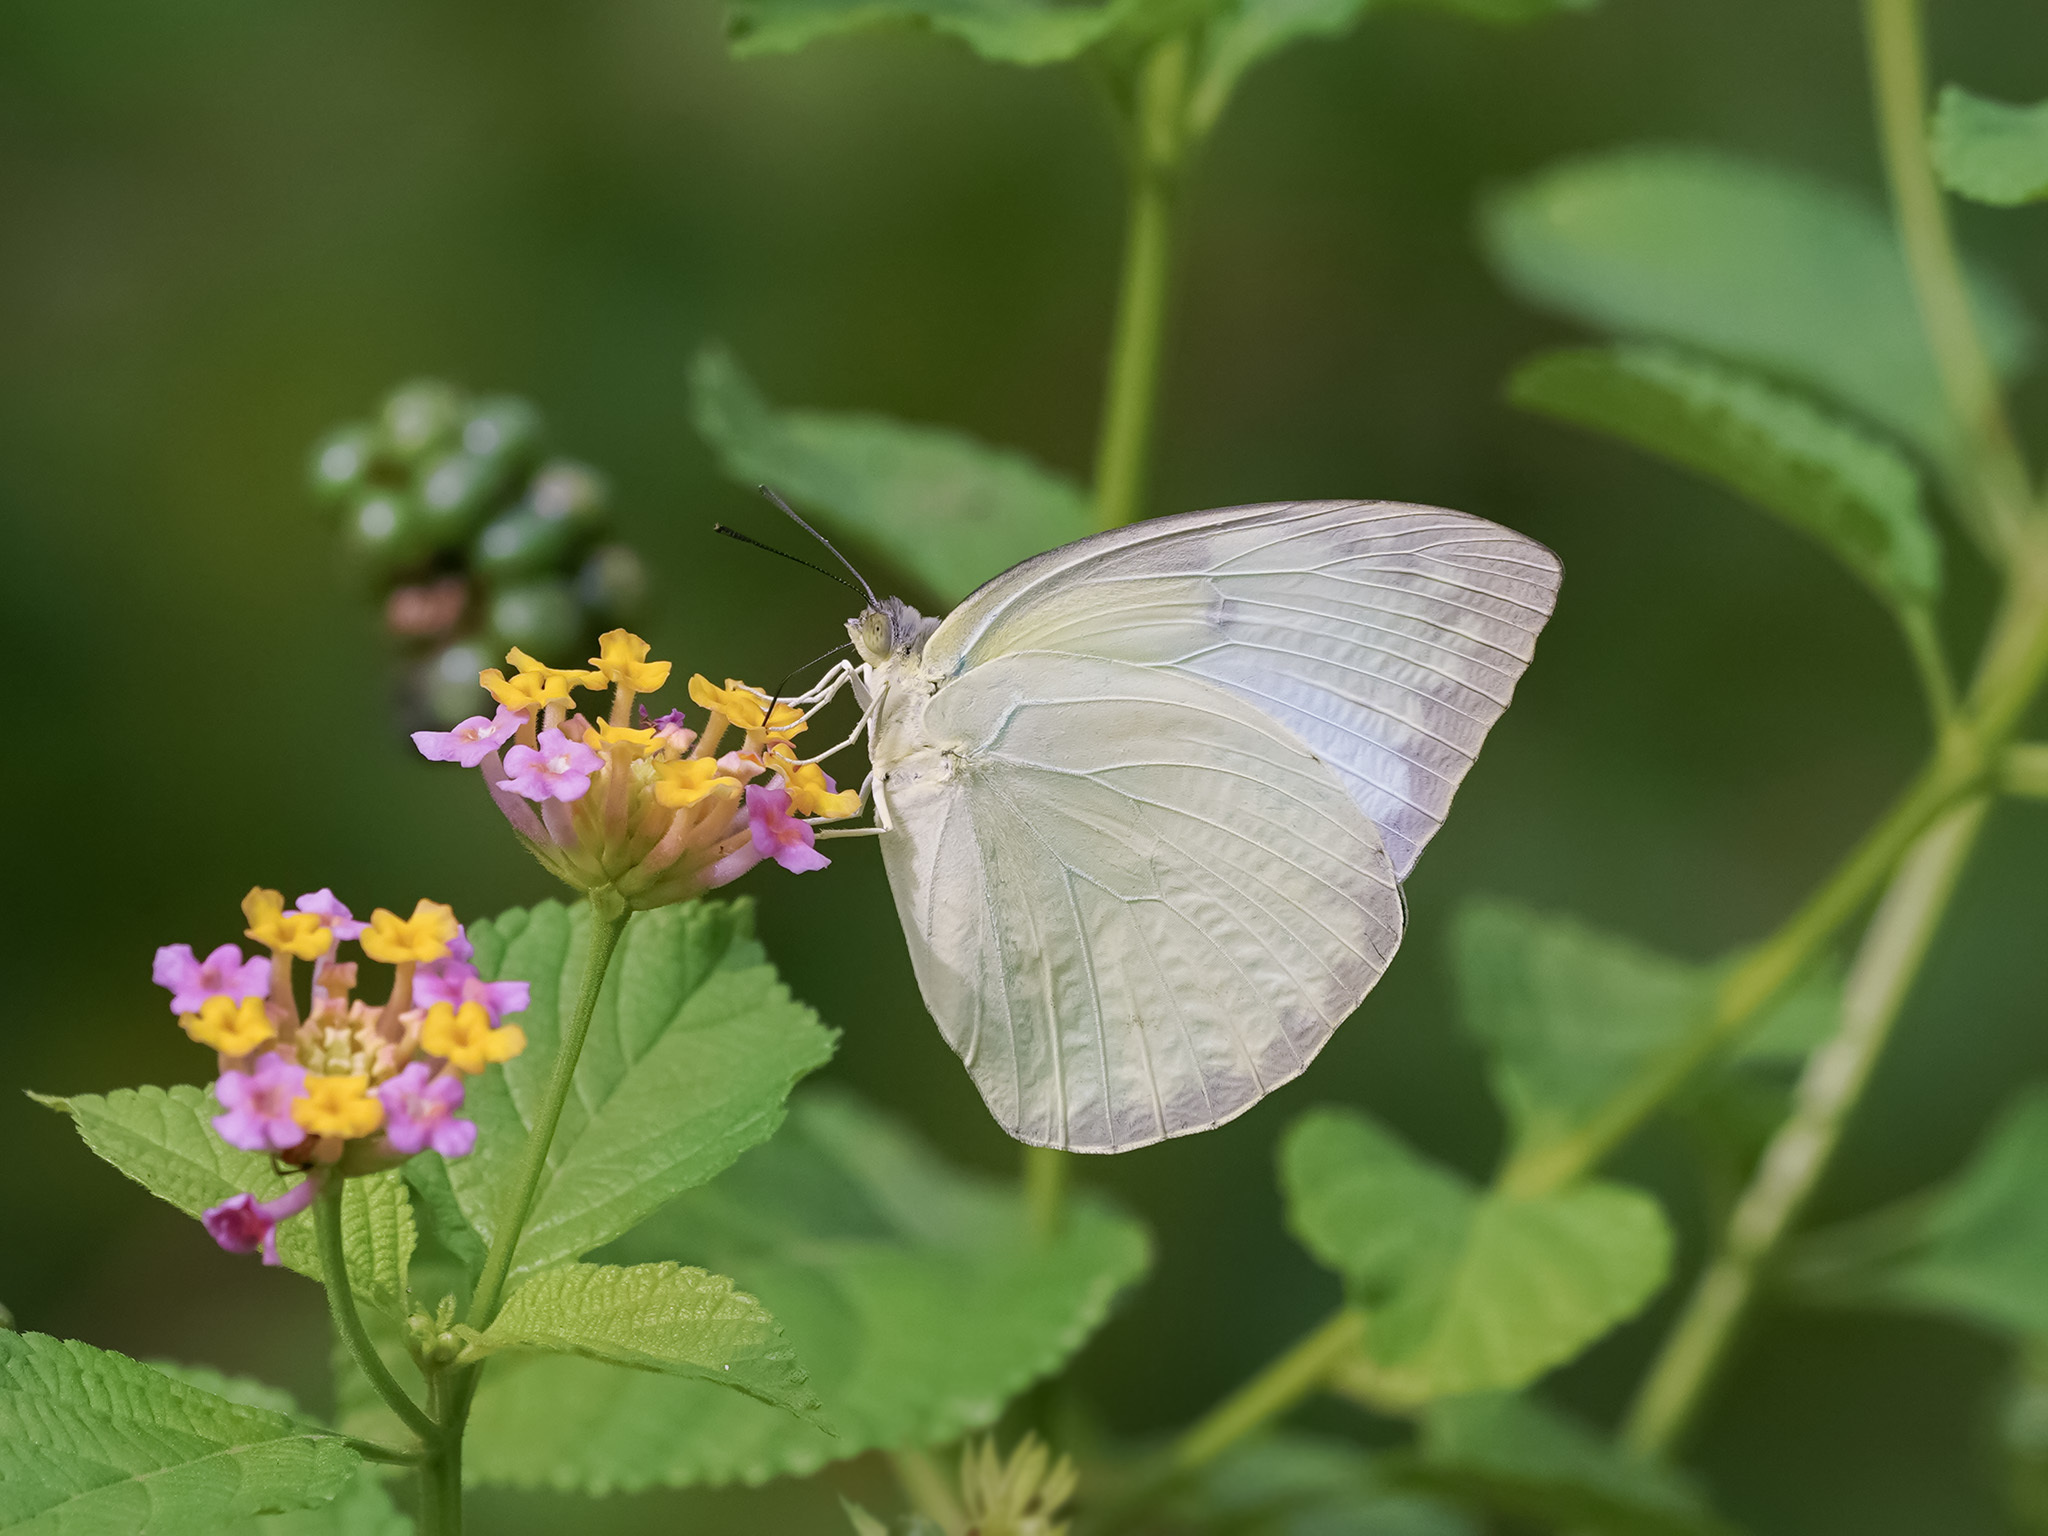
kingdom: Animalia
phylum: Arthropoda
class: Insecta
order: Lepidoptera
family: Pieridae
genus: Catopsilia
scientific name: Catopsilia pomona
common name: Common emigrant
